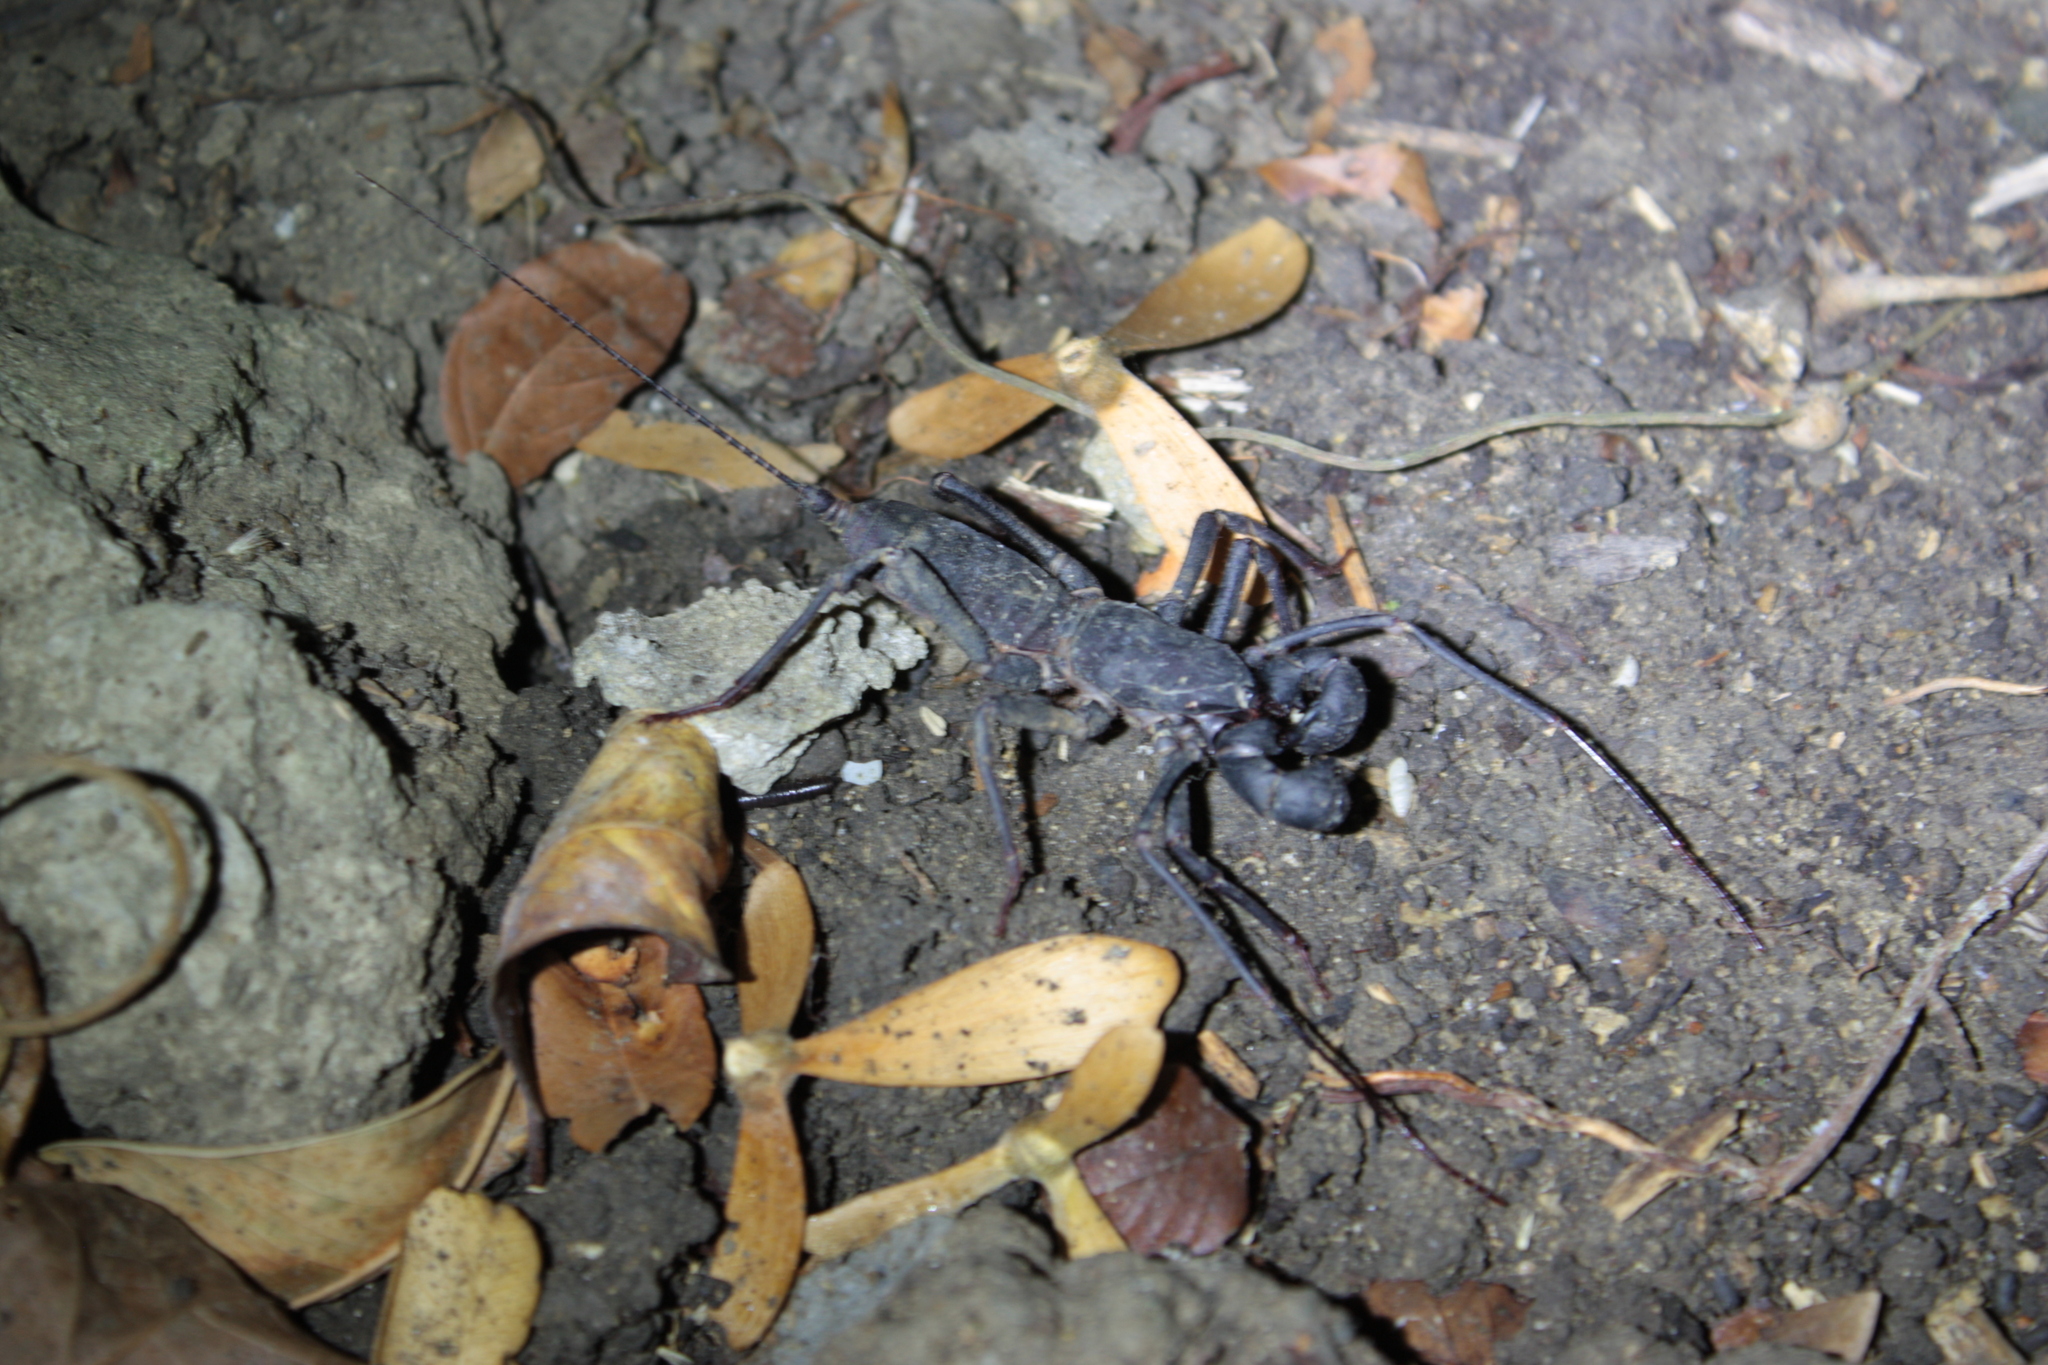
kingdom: Animalia
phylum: Arthropoda
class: Arachnida
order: Uropygi
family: Thelyphonidae
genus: Typopeltis
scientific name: Typopeltis crucifer
